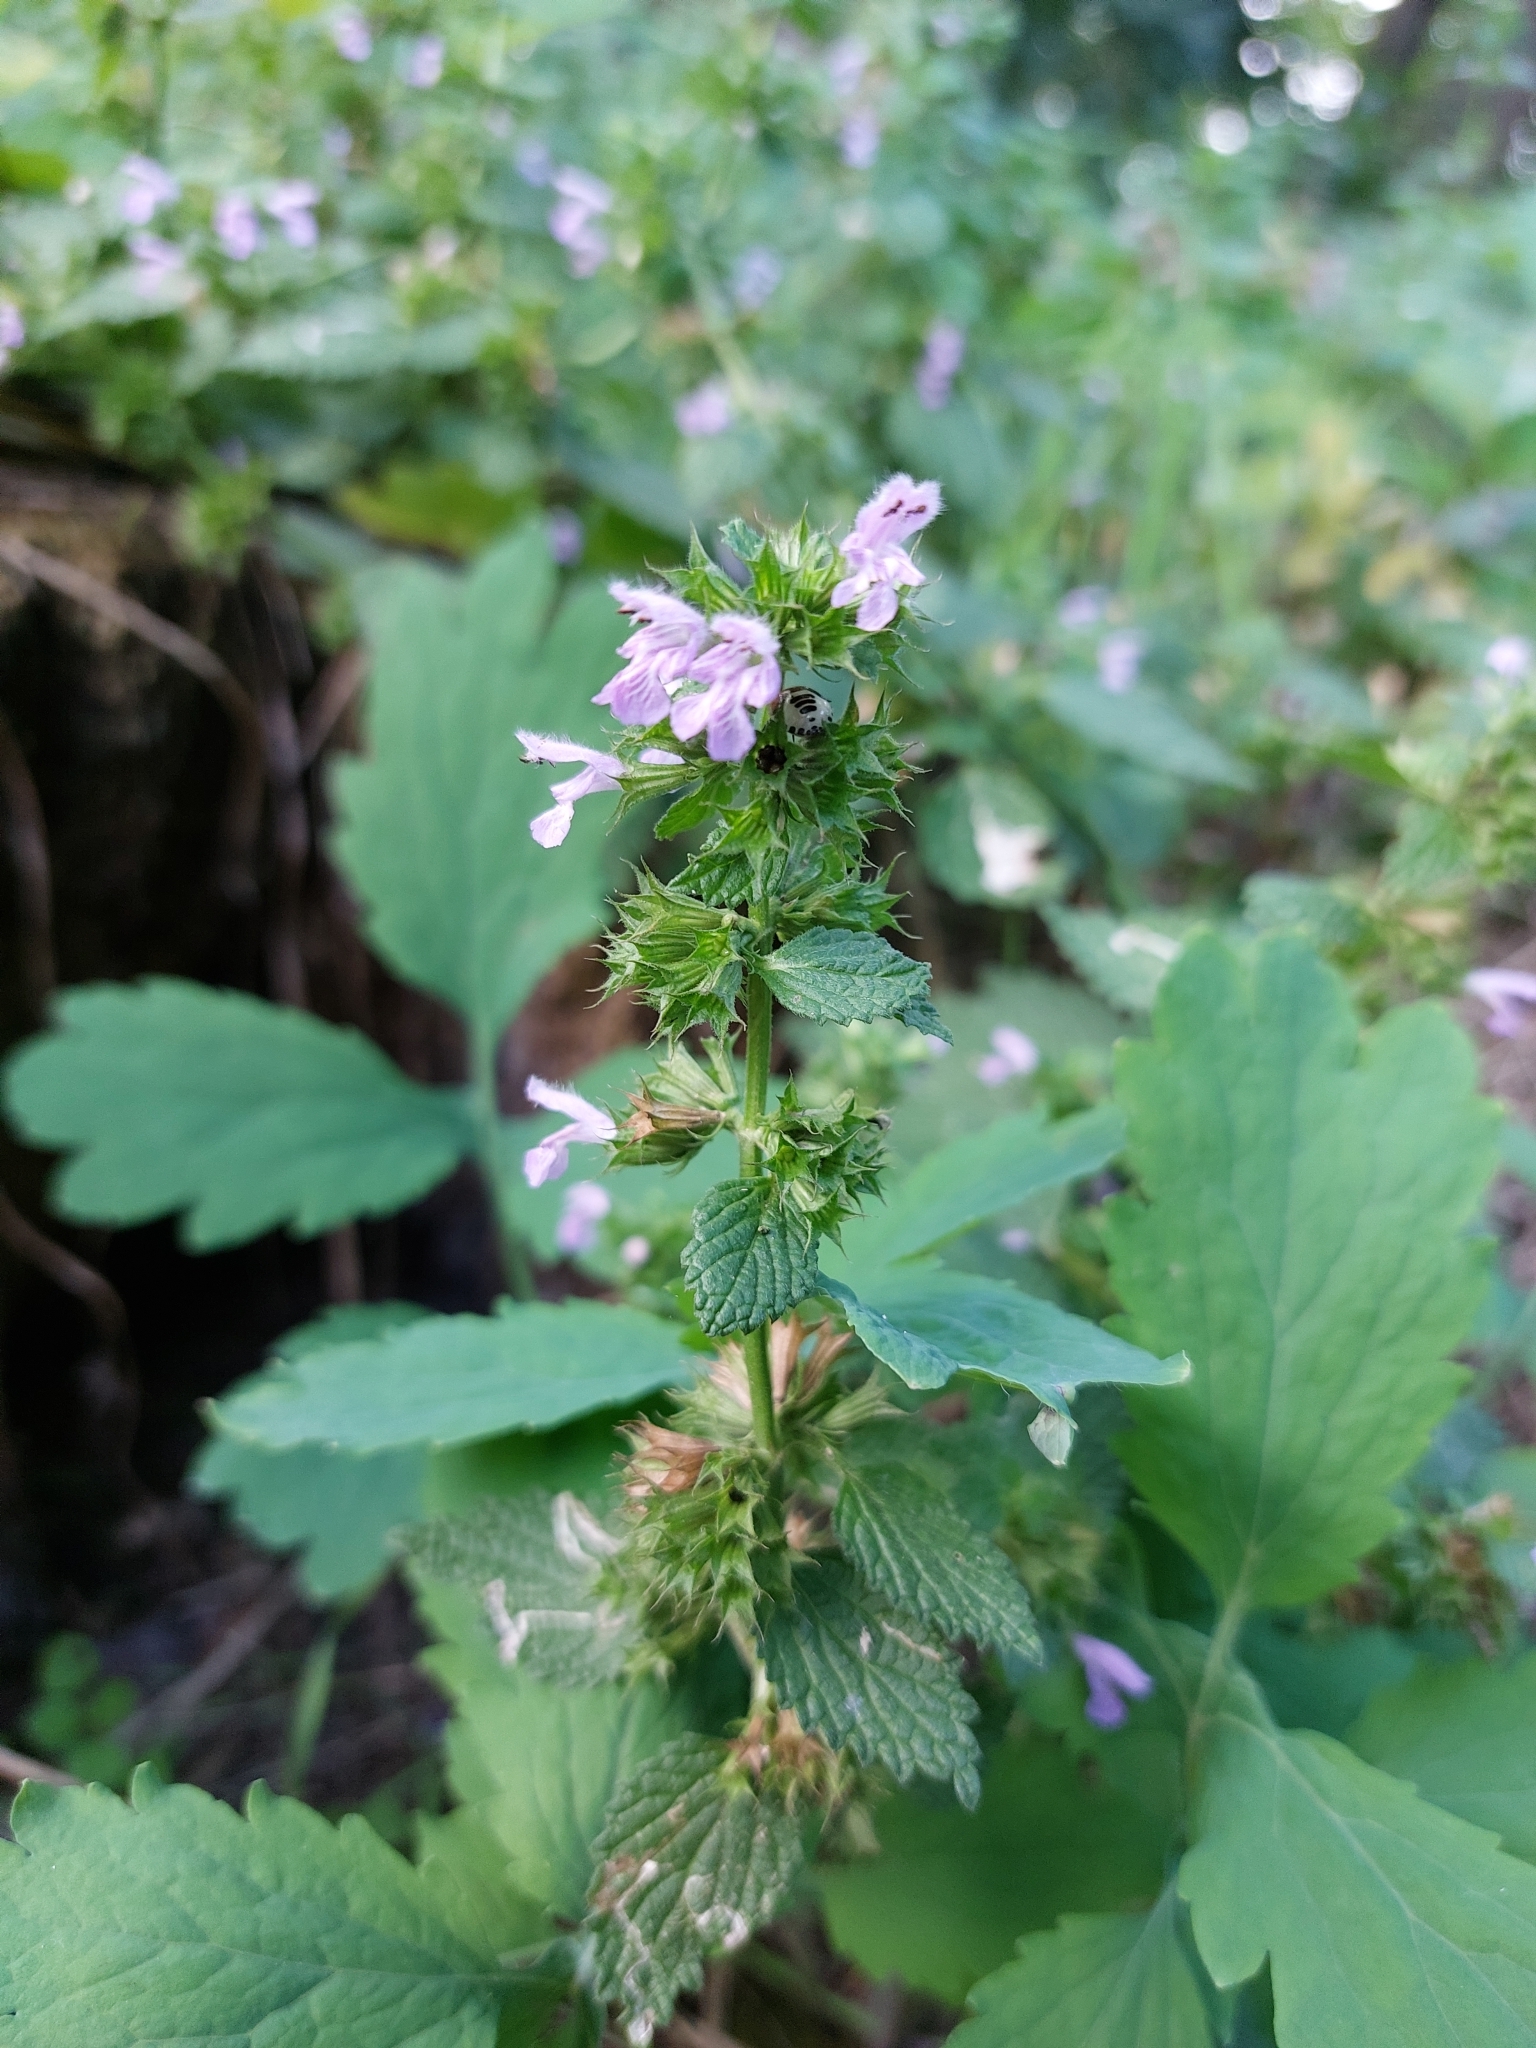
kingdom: Plantae
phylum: Tracheophyta
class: Magnoliopsida
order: Lamiales
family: Lamiaceae
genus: Ballota
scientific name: Ballota nigra
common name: Black horehound
